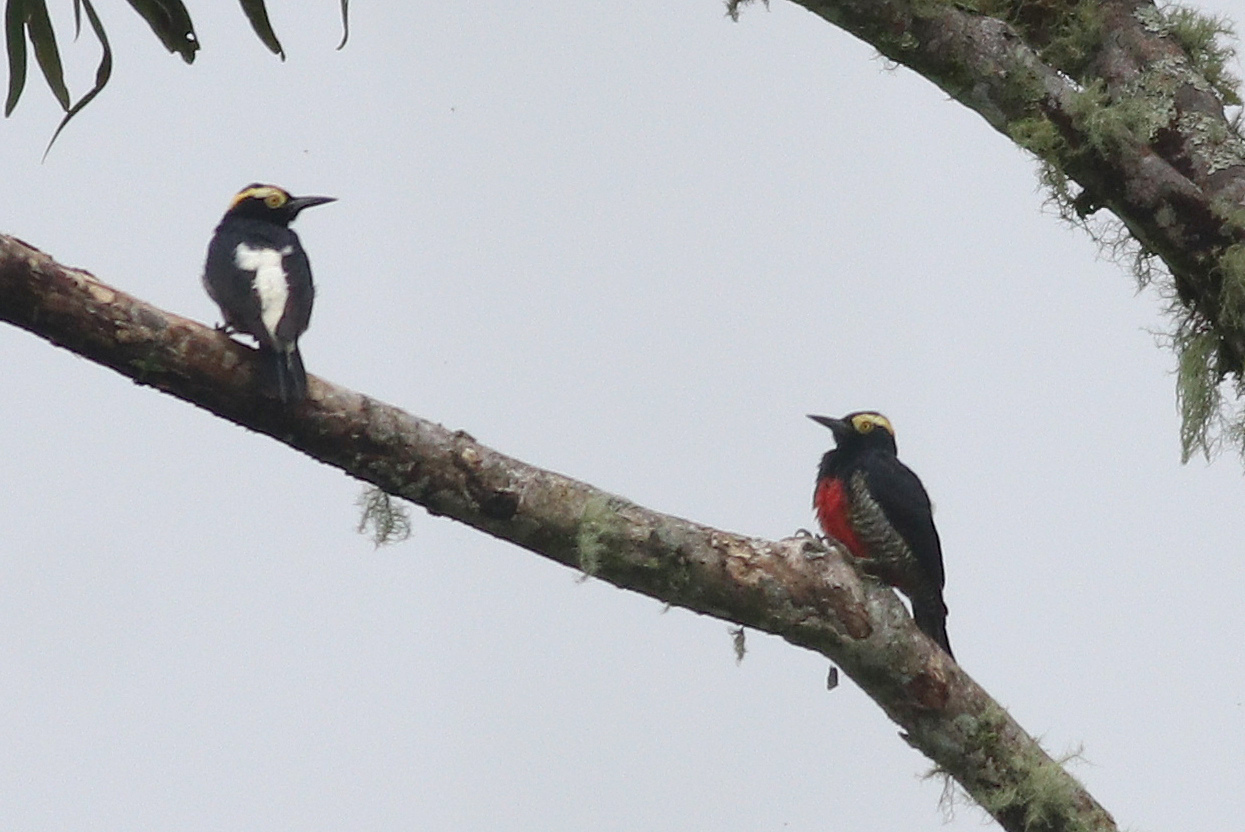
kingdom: Animalia
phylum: Chordata
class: Aves
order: Piciformes
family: Picidae
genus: Melanerpes
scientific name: Melanerpes cruentatus
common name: Yellow-tufted woodpecker
